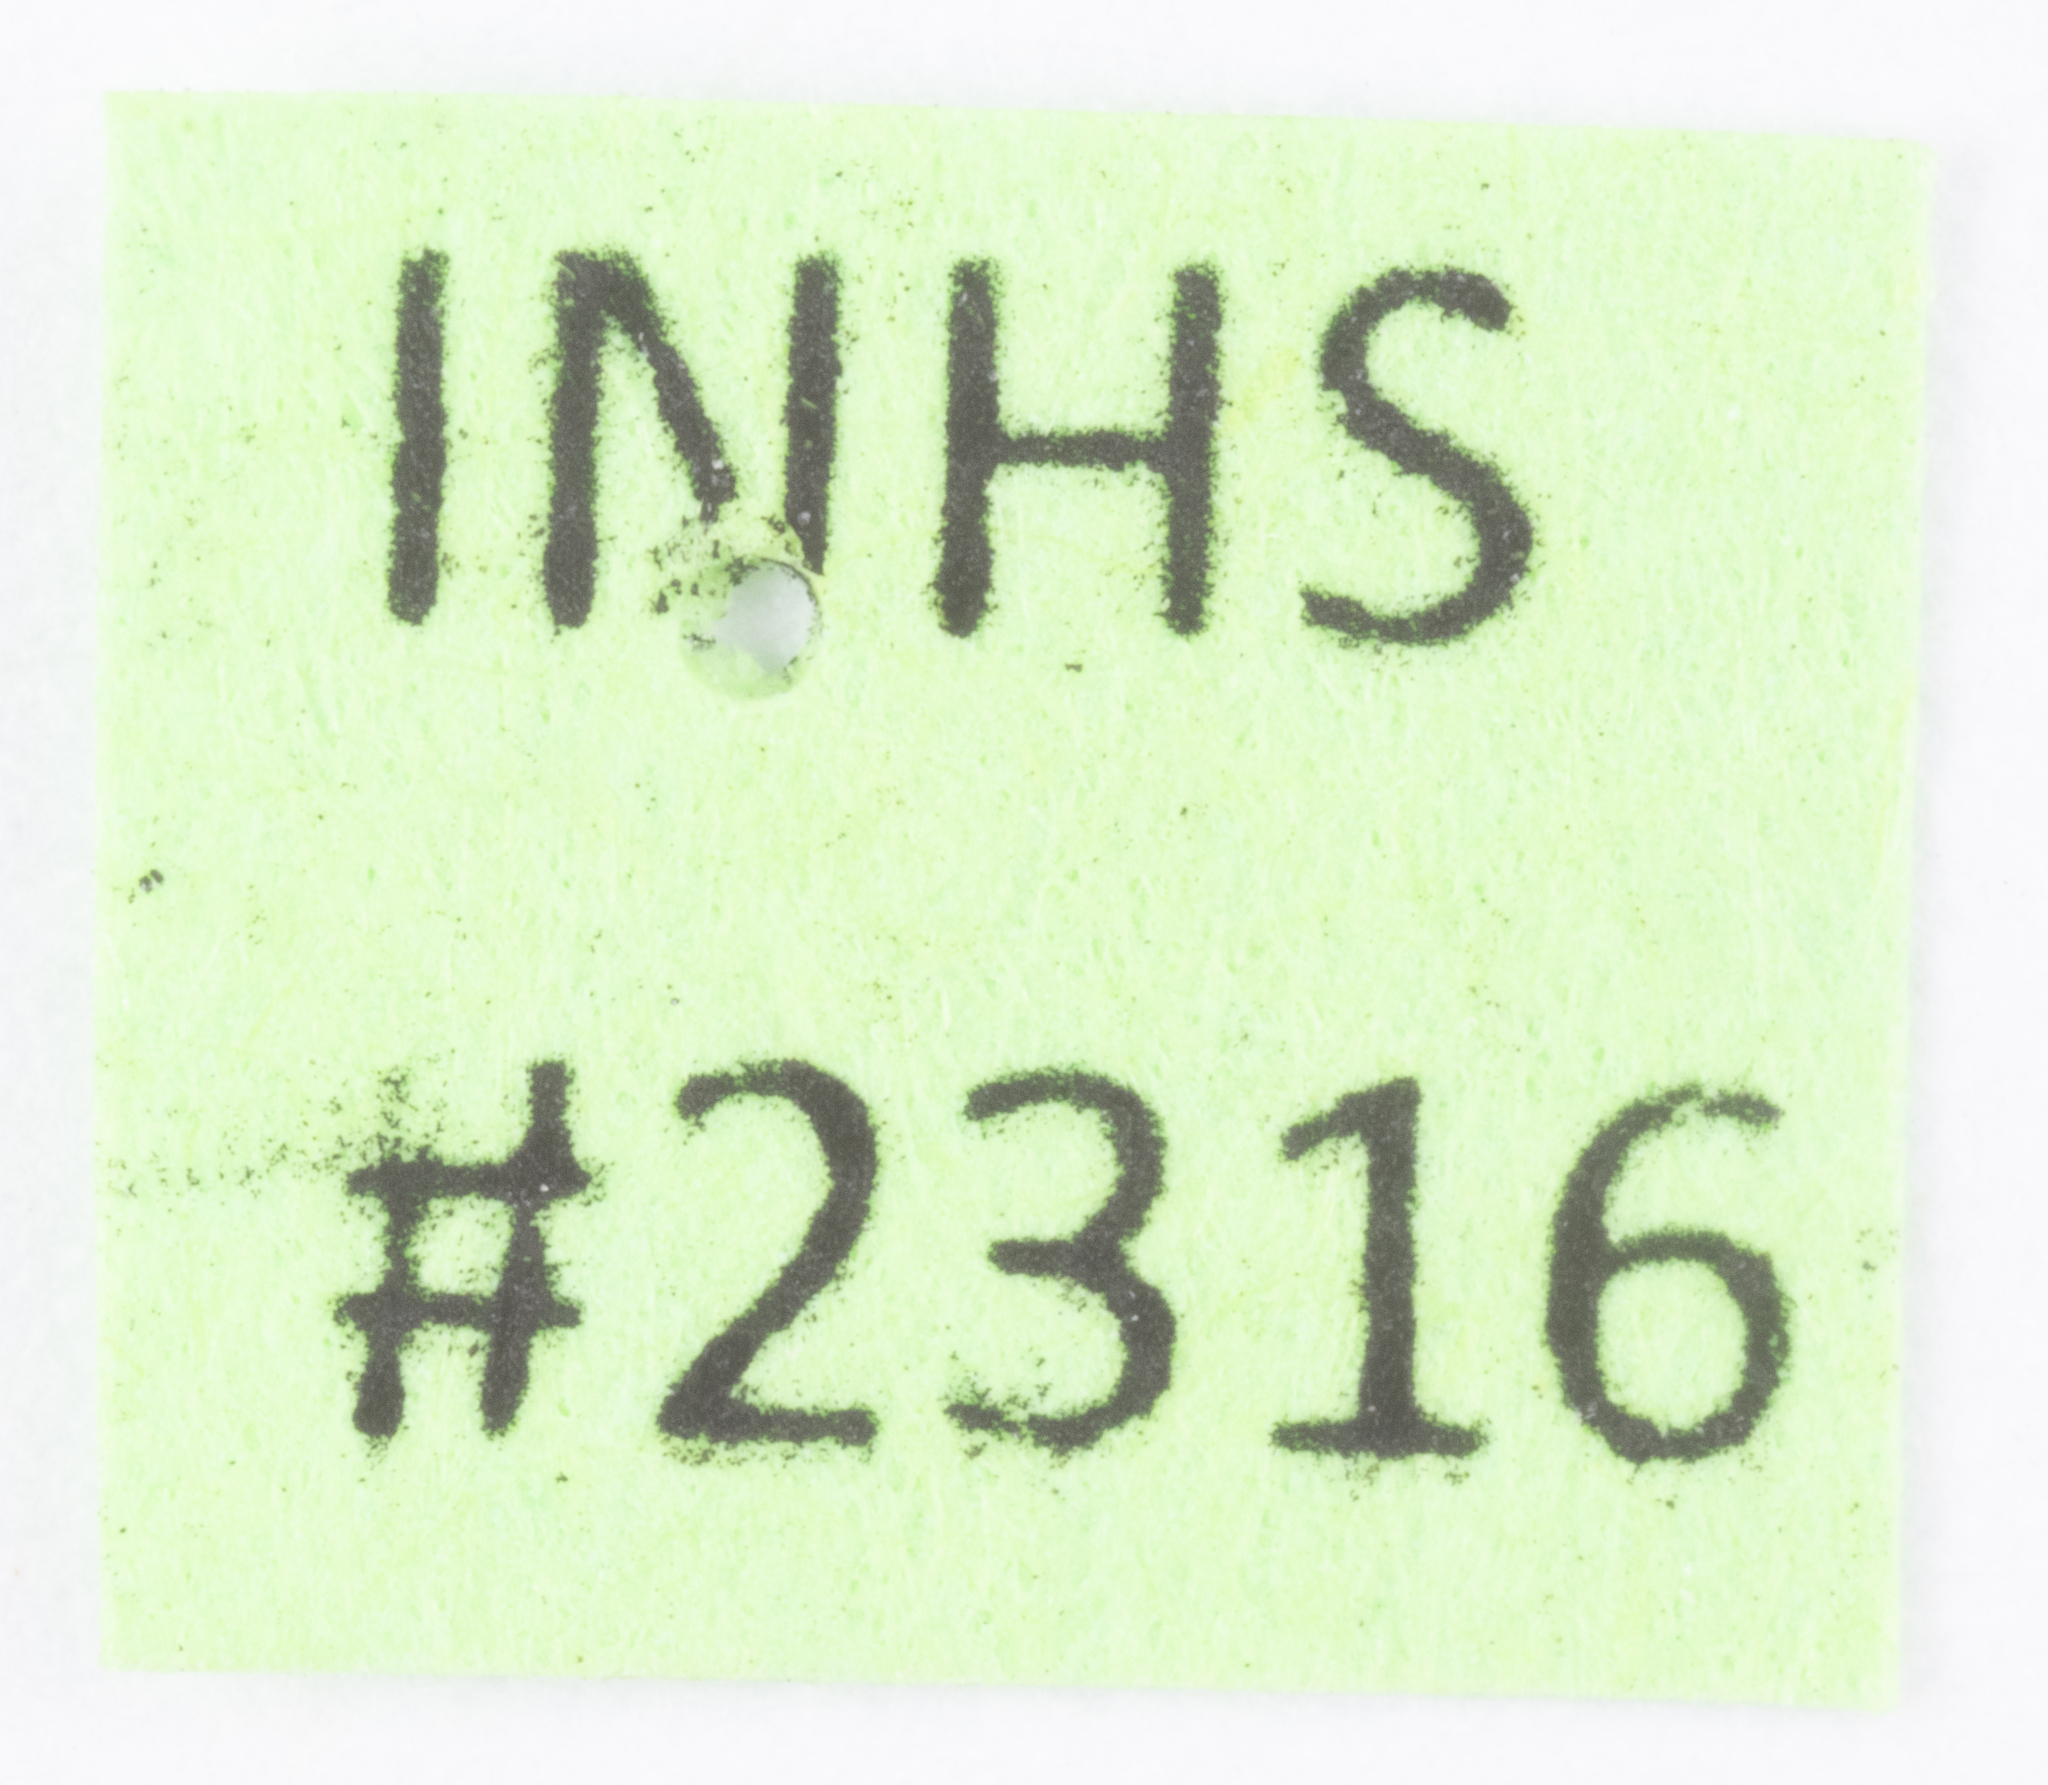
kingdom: Animalia
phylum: Arthropoda
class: Insecta
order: Hemiptera
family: Delphacidae
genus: Megamelus
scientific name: Megamelus scutellaris
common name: South american planthopper
